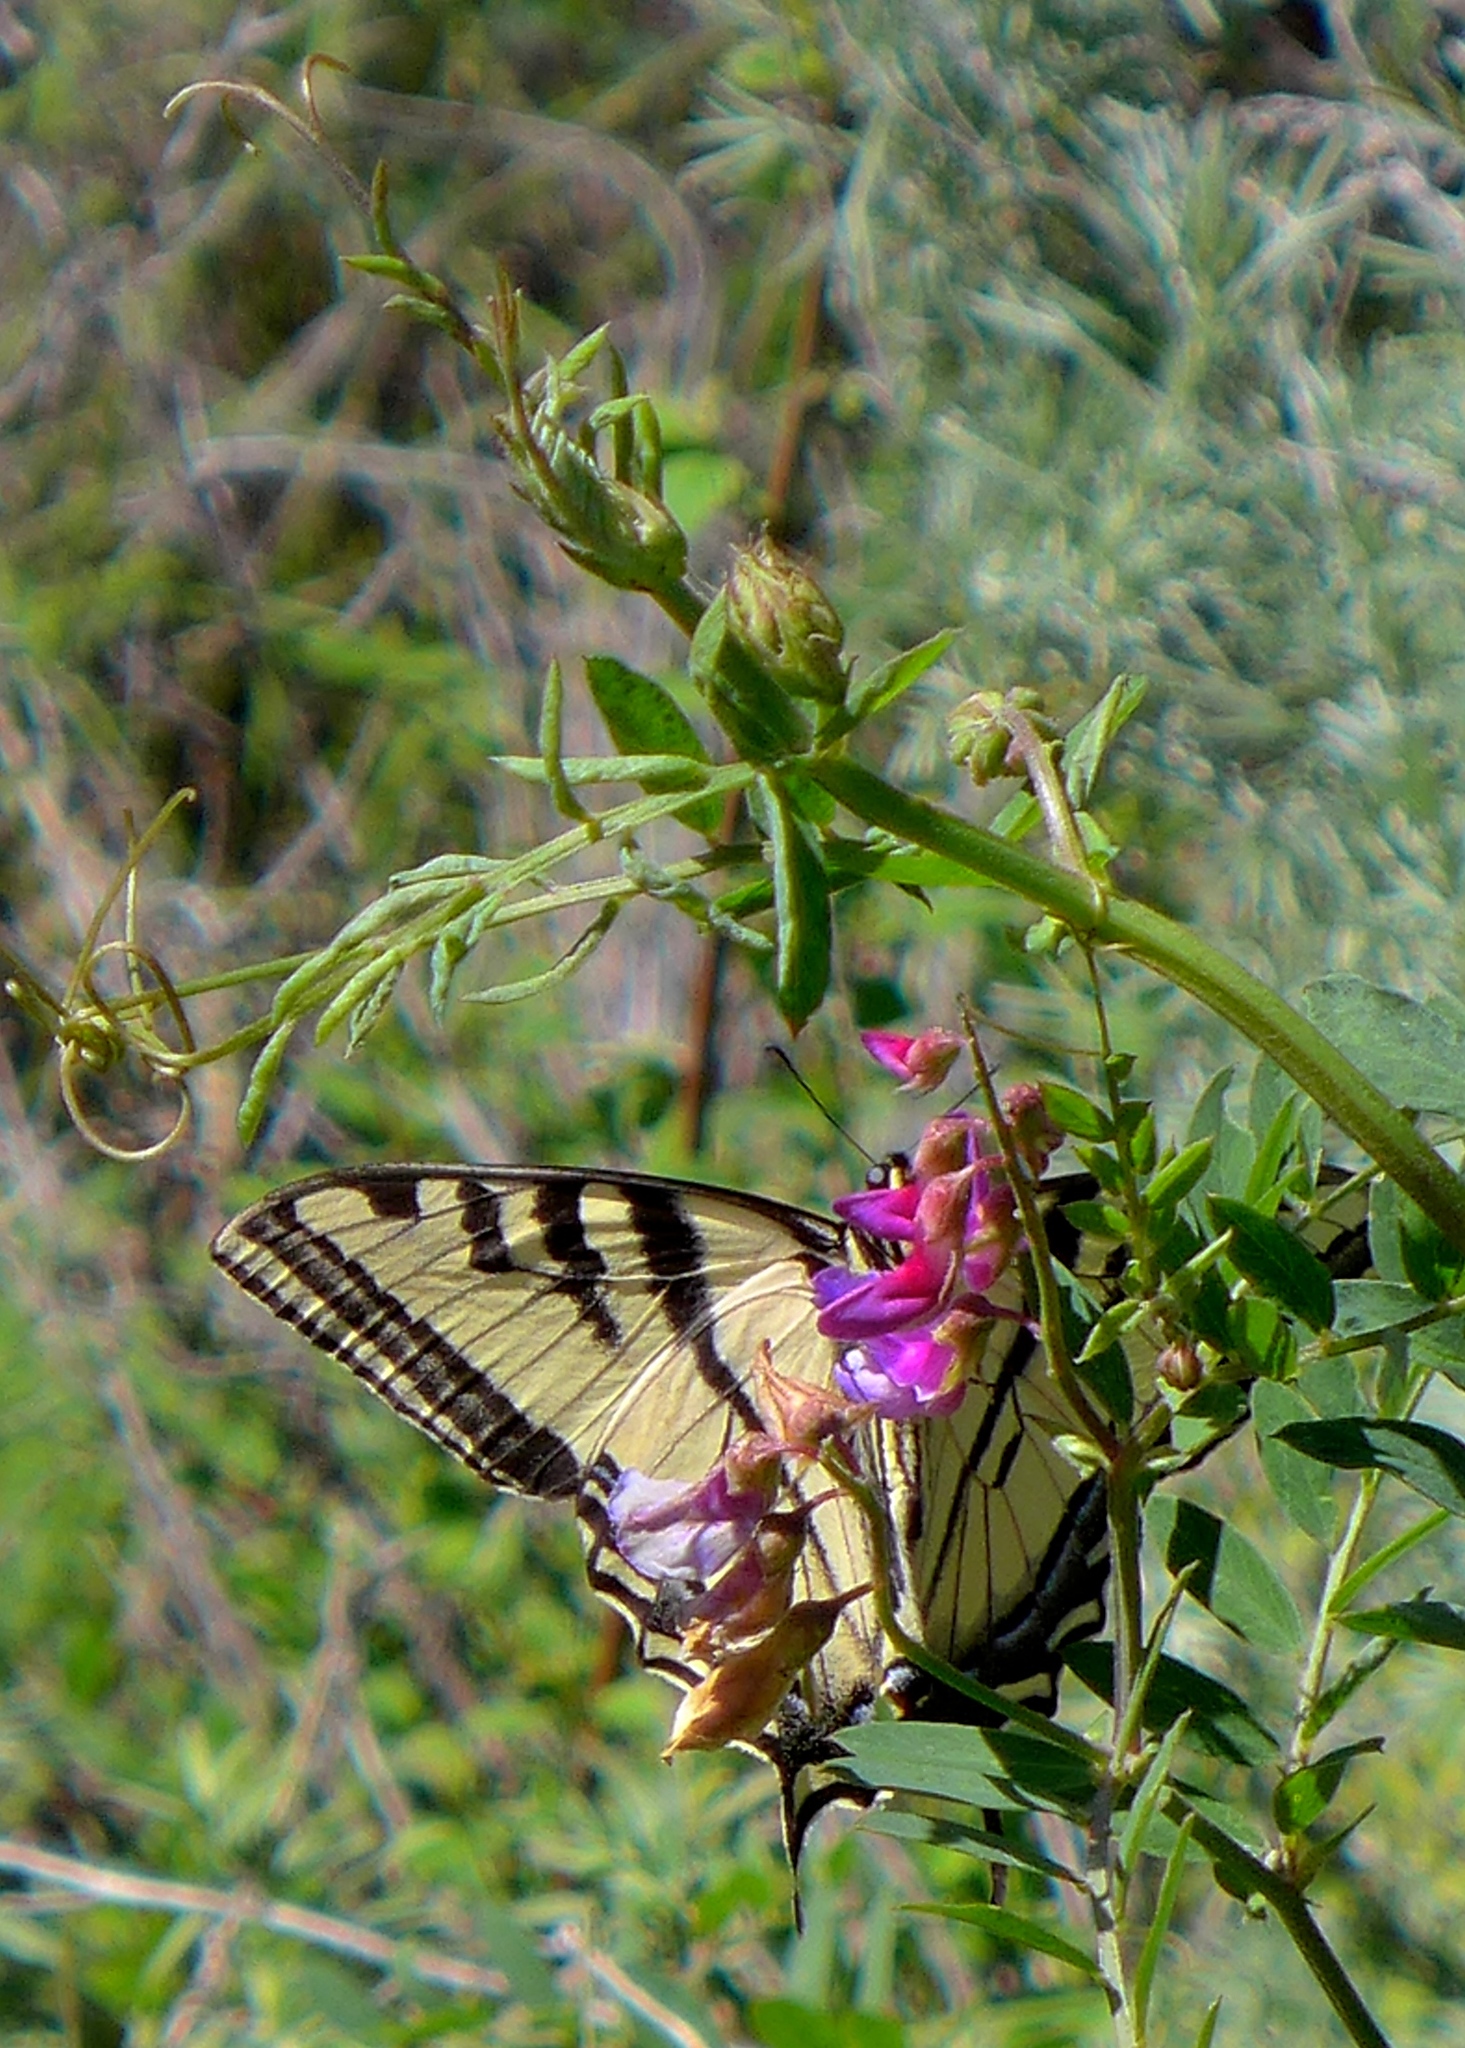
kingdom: Animalia
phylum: Arthropoda
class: Insecta
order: Lepidoptera
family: Papilionidae
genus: Papilio
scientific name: Papilio rutulus
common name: Western tiger swallowtail
